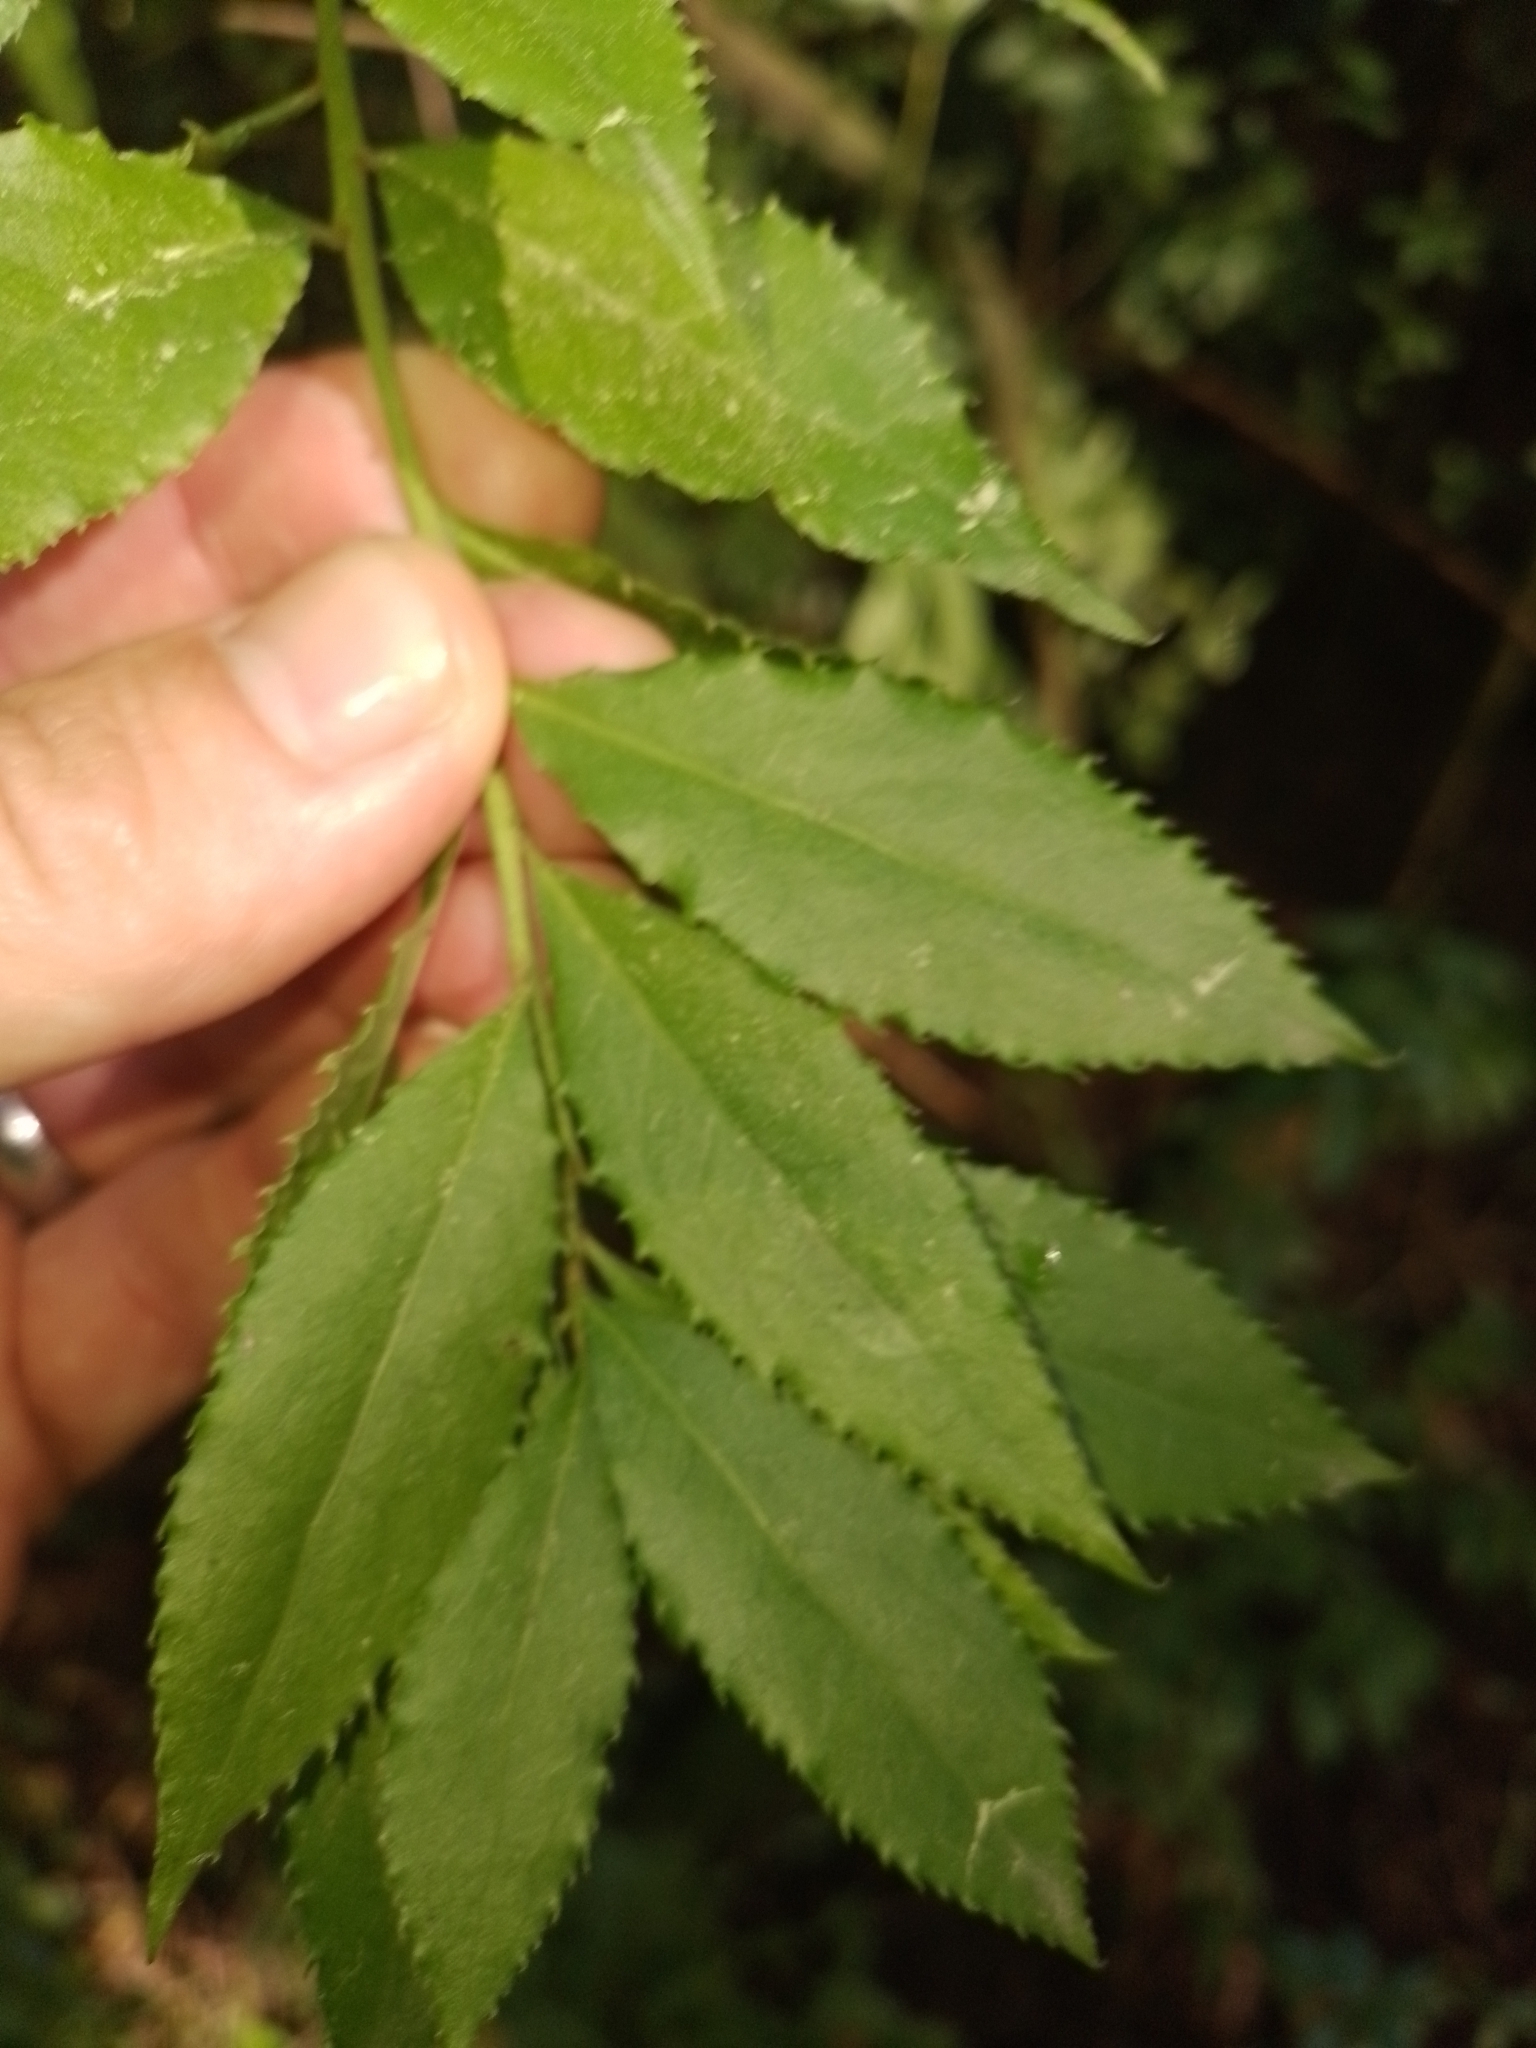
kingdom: Plantae
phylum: Tracheophyta
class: Magnoliopsida
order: Celastrales
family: Celastraceae
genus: Maytenus
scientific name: Maytenus boaria
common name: Mayten
